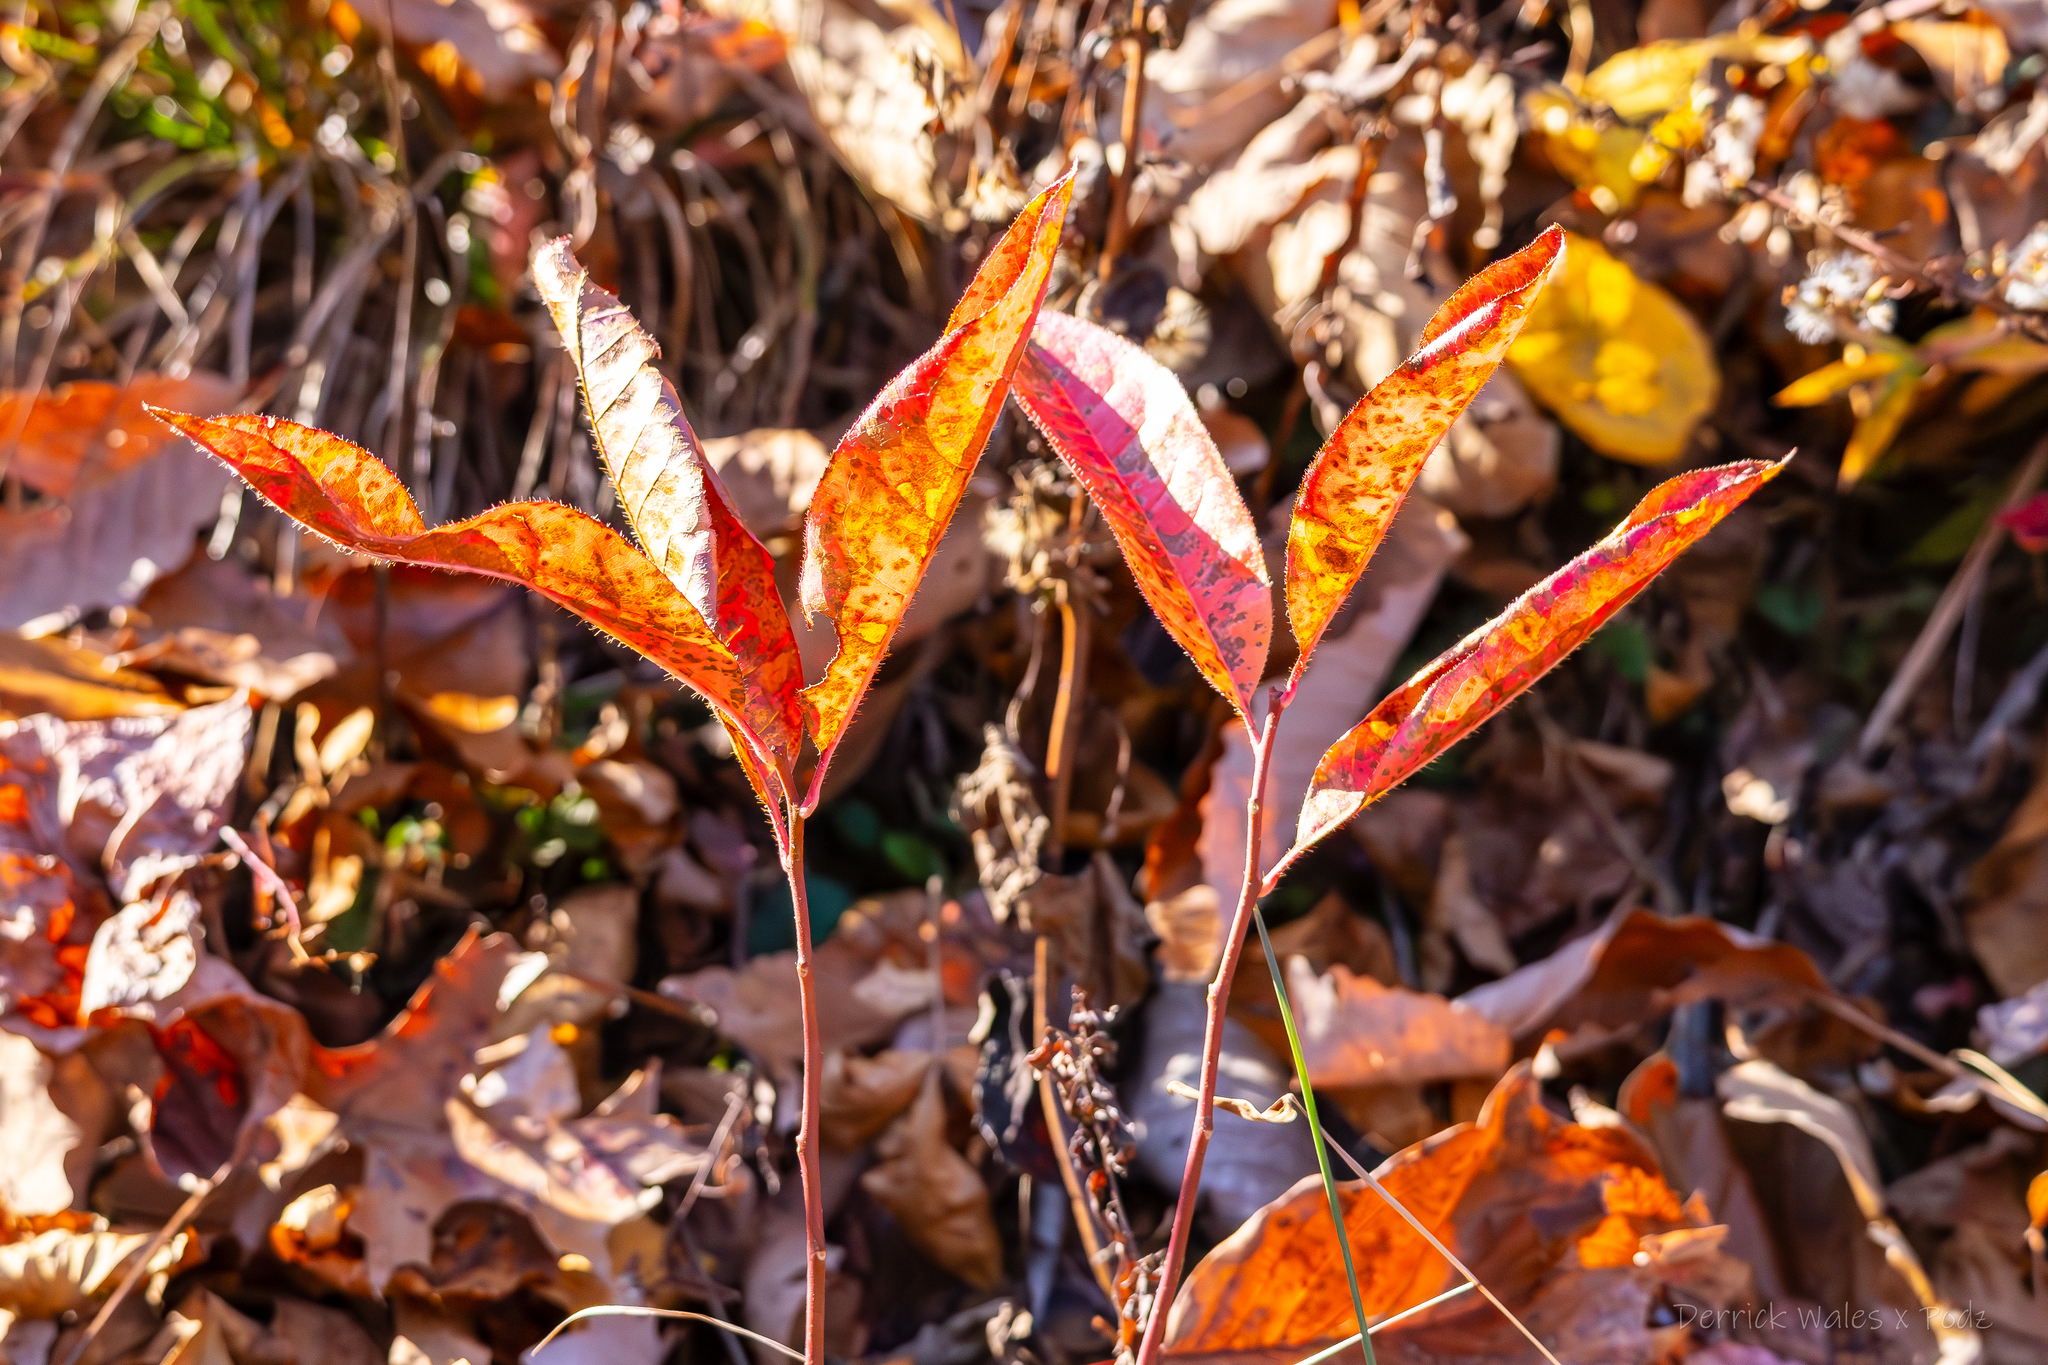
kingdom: Plantae
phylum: Tracheophyta
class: Magnoliopsida
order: Ericales
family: Ericaceae
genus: Oxydendrum
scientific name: Oxydendrum arboreum
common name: Sourwood
